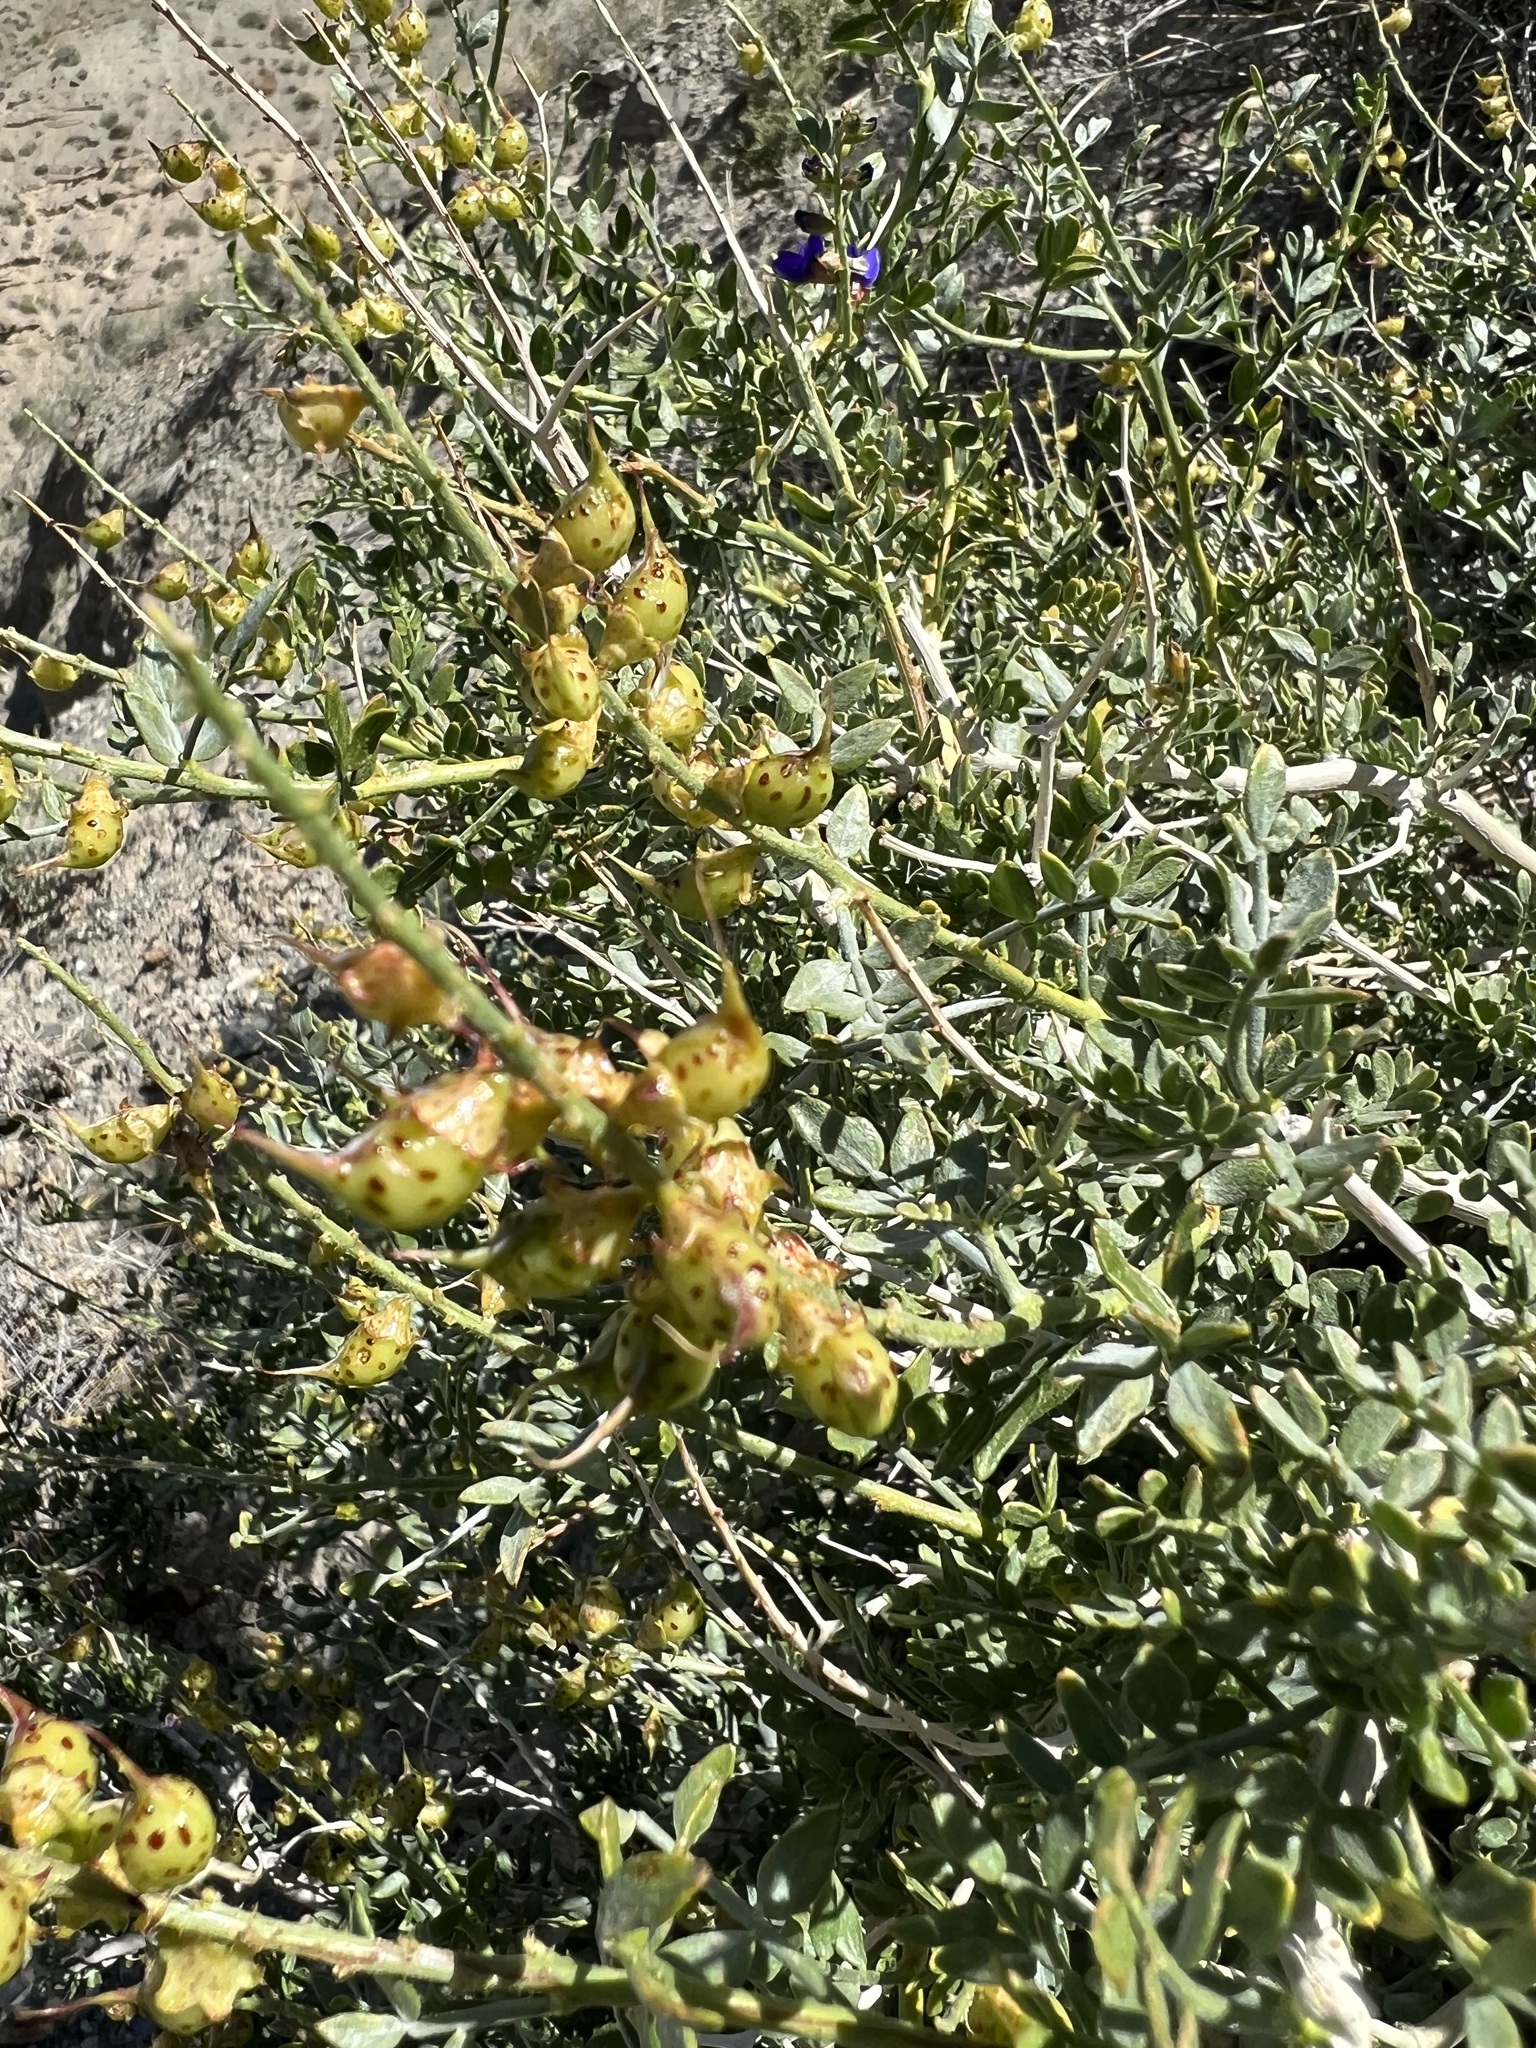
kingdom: Plantae
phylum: Tracheophyta
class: Magnoliopsida
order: Fabales
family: Fabaceae
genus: Psorothamnus
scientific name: Psorothamnus arborescens
